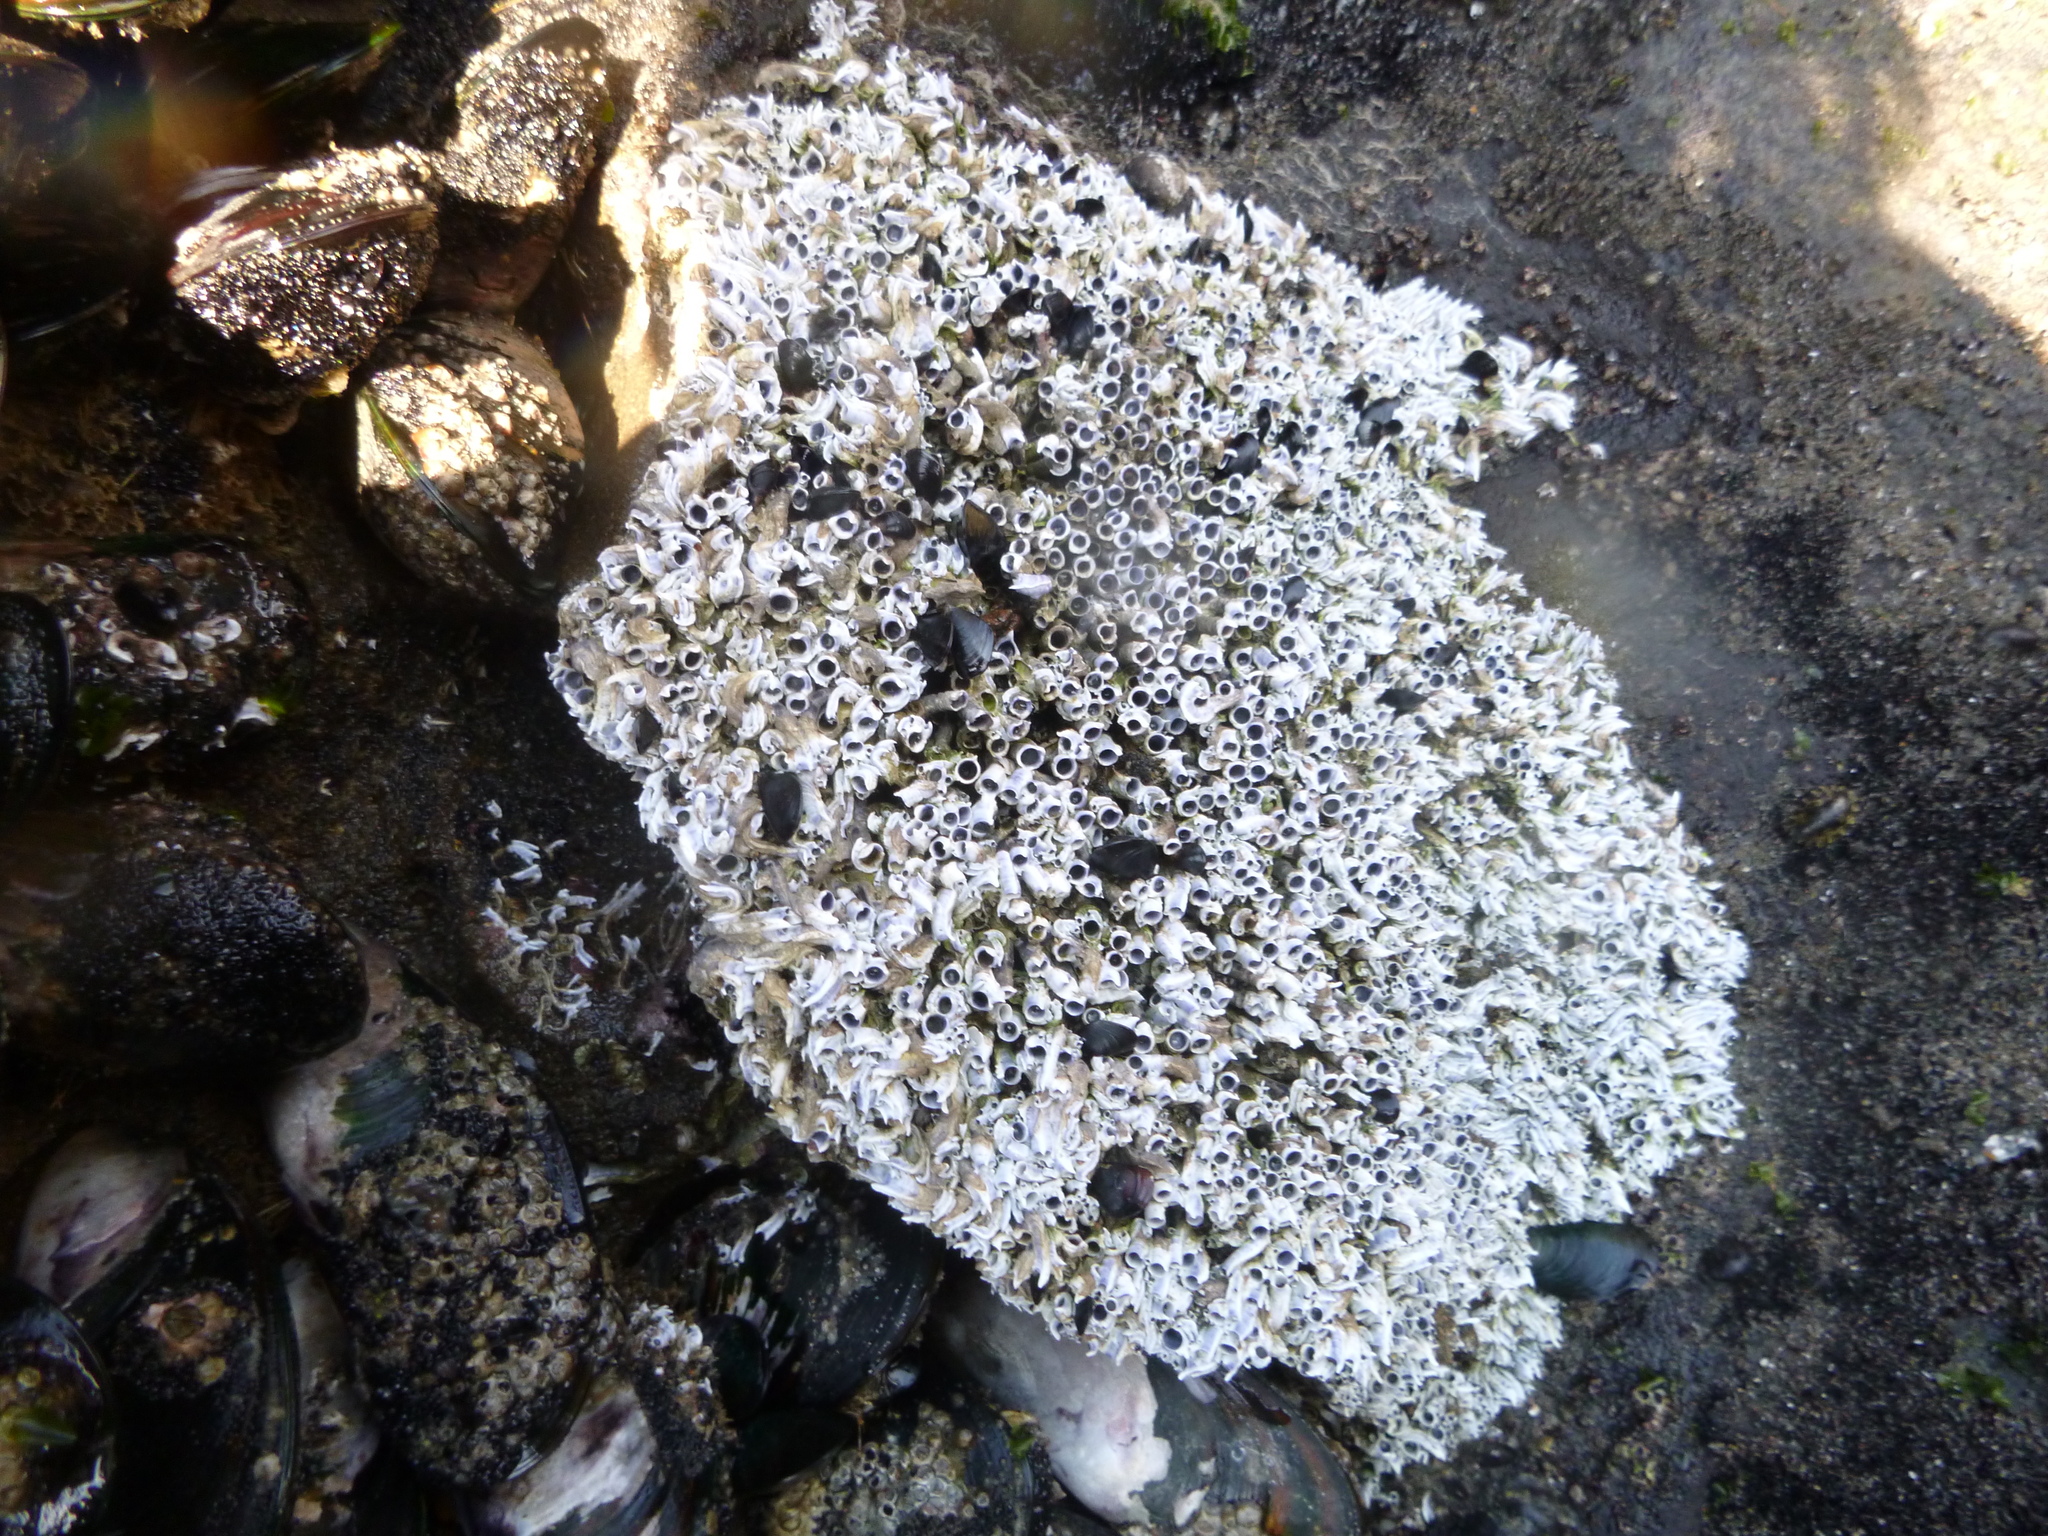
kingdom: Animalia
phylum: Annelida
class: Polychaeta
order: Sabellida
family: Serpulidae
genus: Spirobranchus
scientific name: Spirobranchus cariniferus
